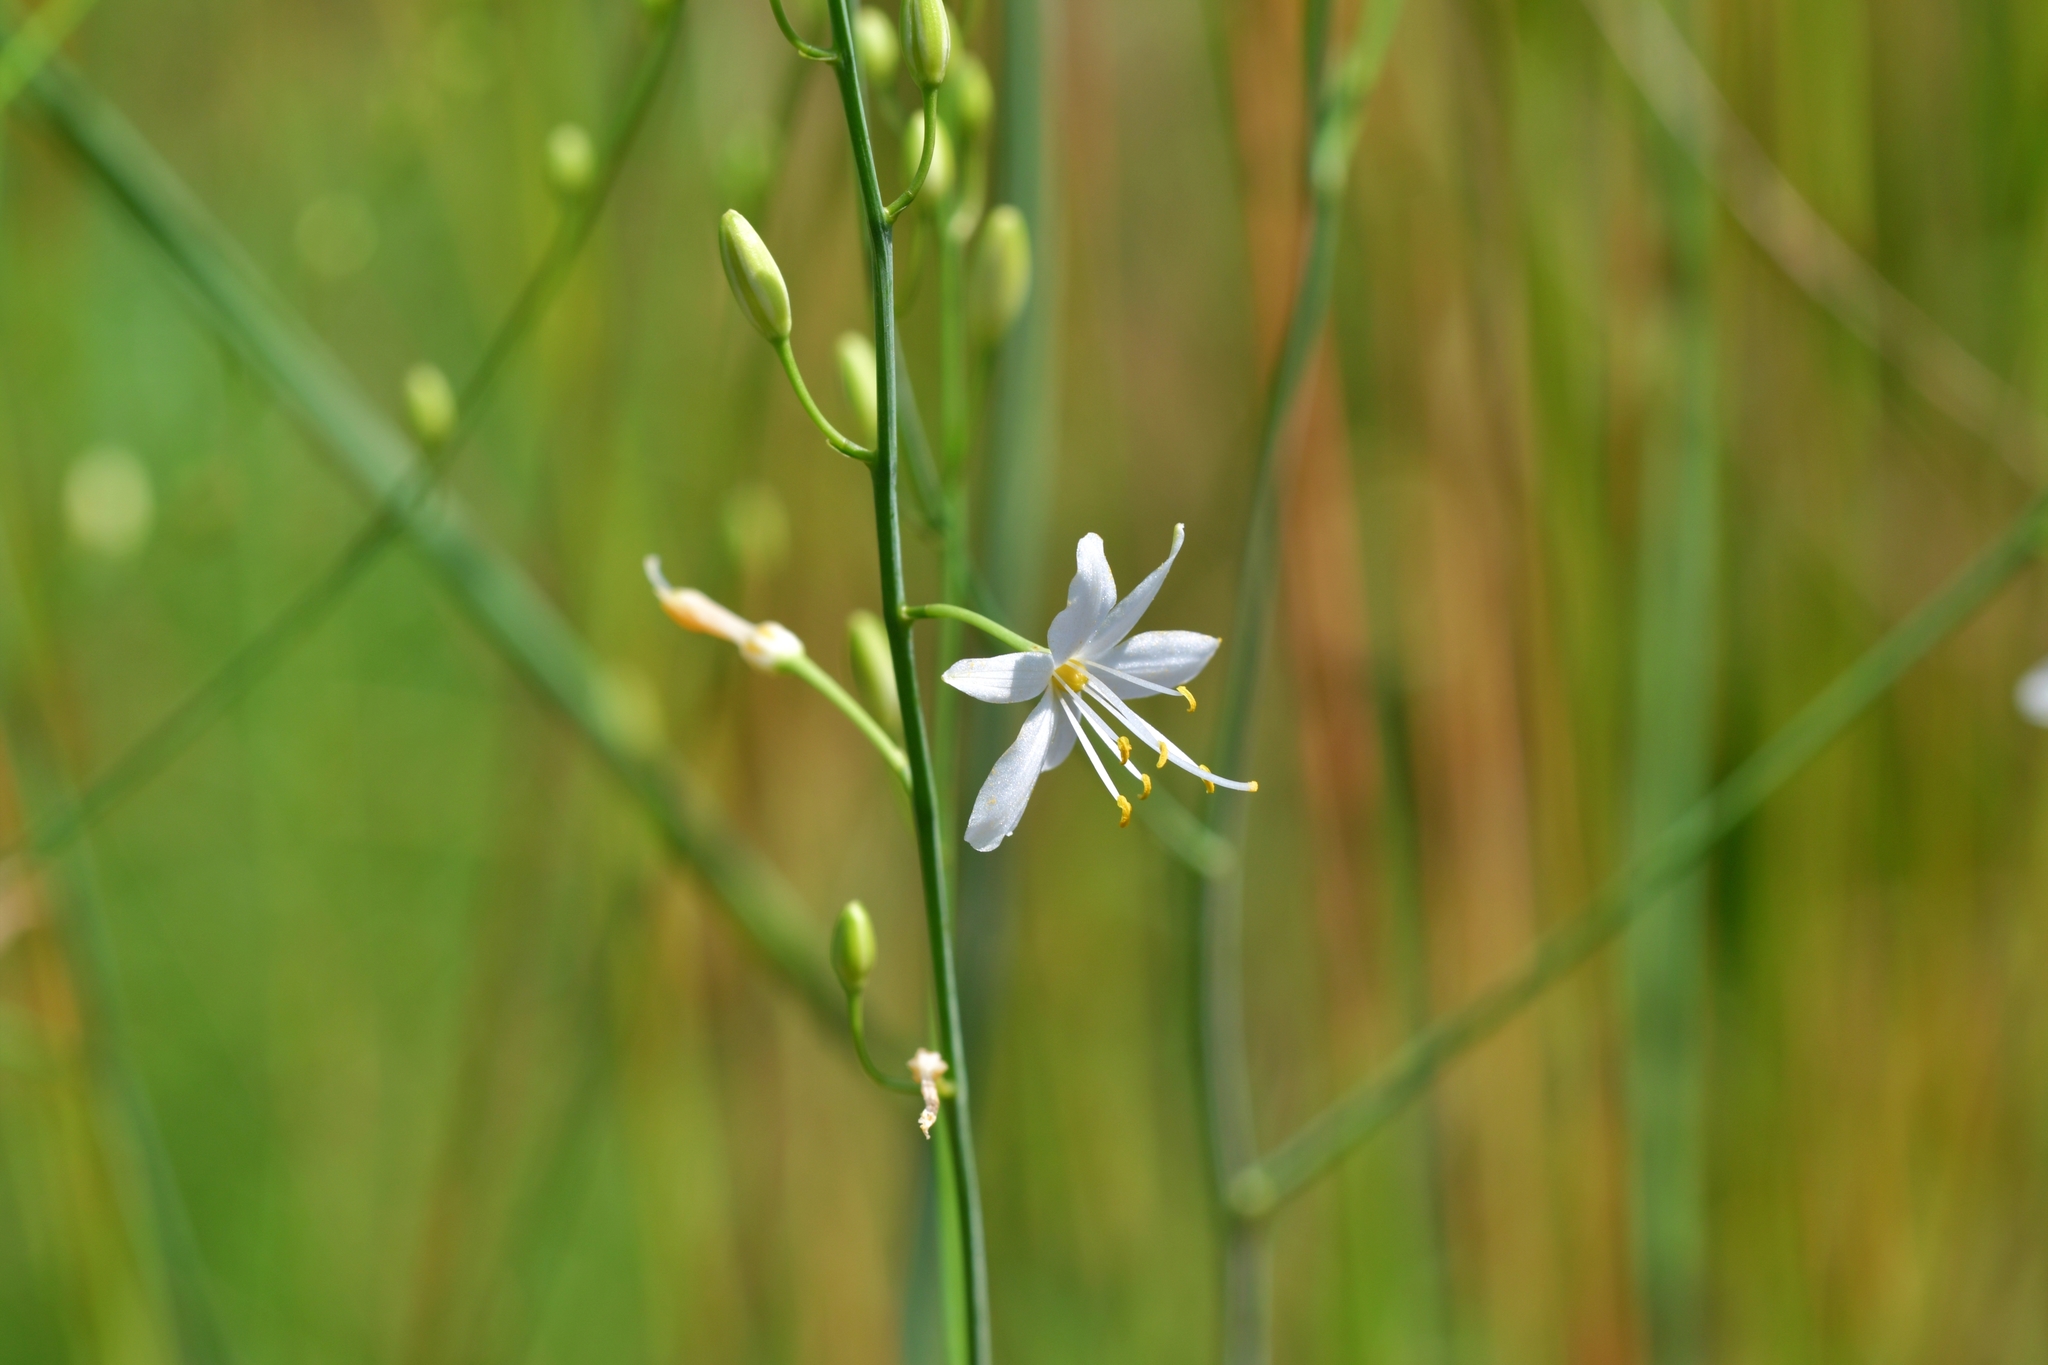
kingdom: Plantae
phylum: Tracheophyta
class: Liliopsida
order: Asparagales
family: Asparagaceae
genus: Anthericum
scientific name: Anthericum ramosum
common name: Branched st. bernard's-lily
